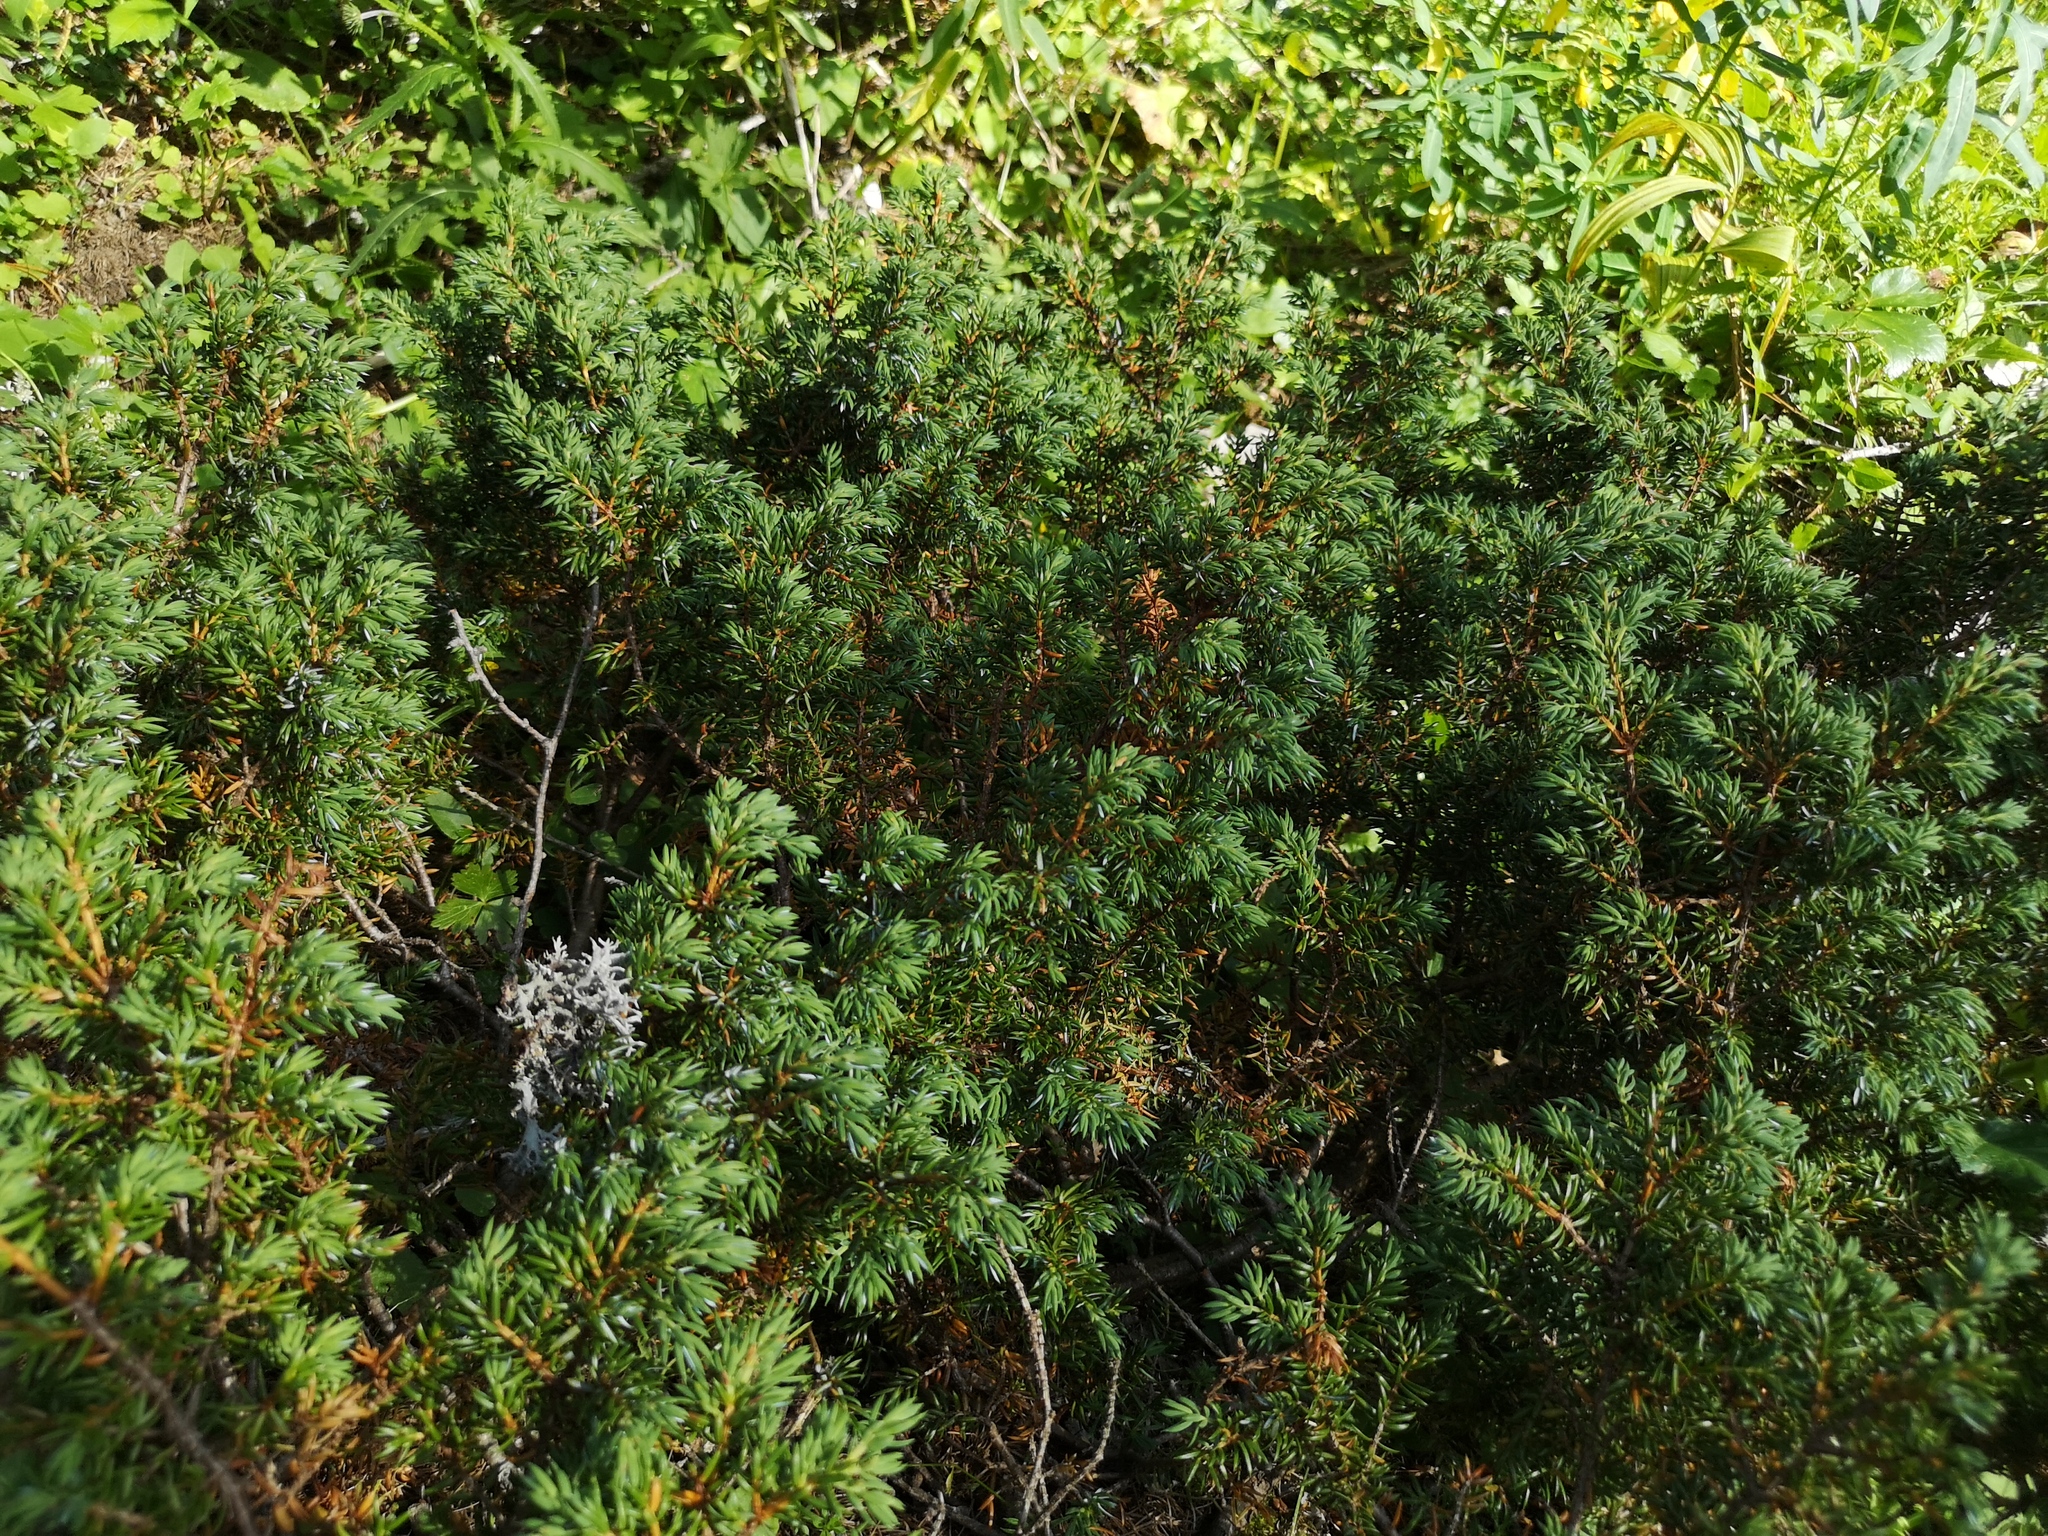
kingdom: Plantae
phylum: Tracheophyta
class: Pinopsida
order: Pinales
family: Cupressaceae
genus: Juniperus
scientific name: Juniperus communis
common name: Common juniper
